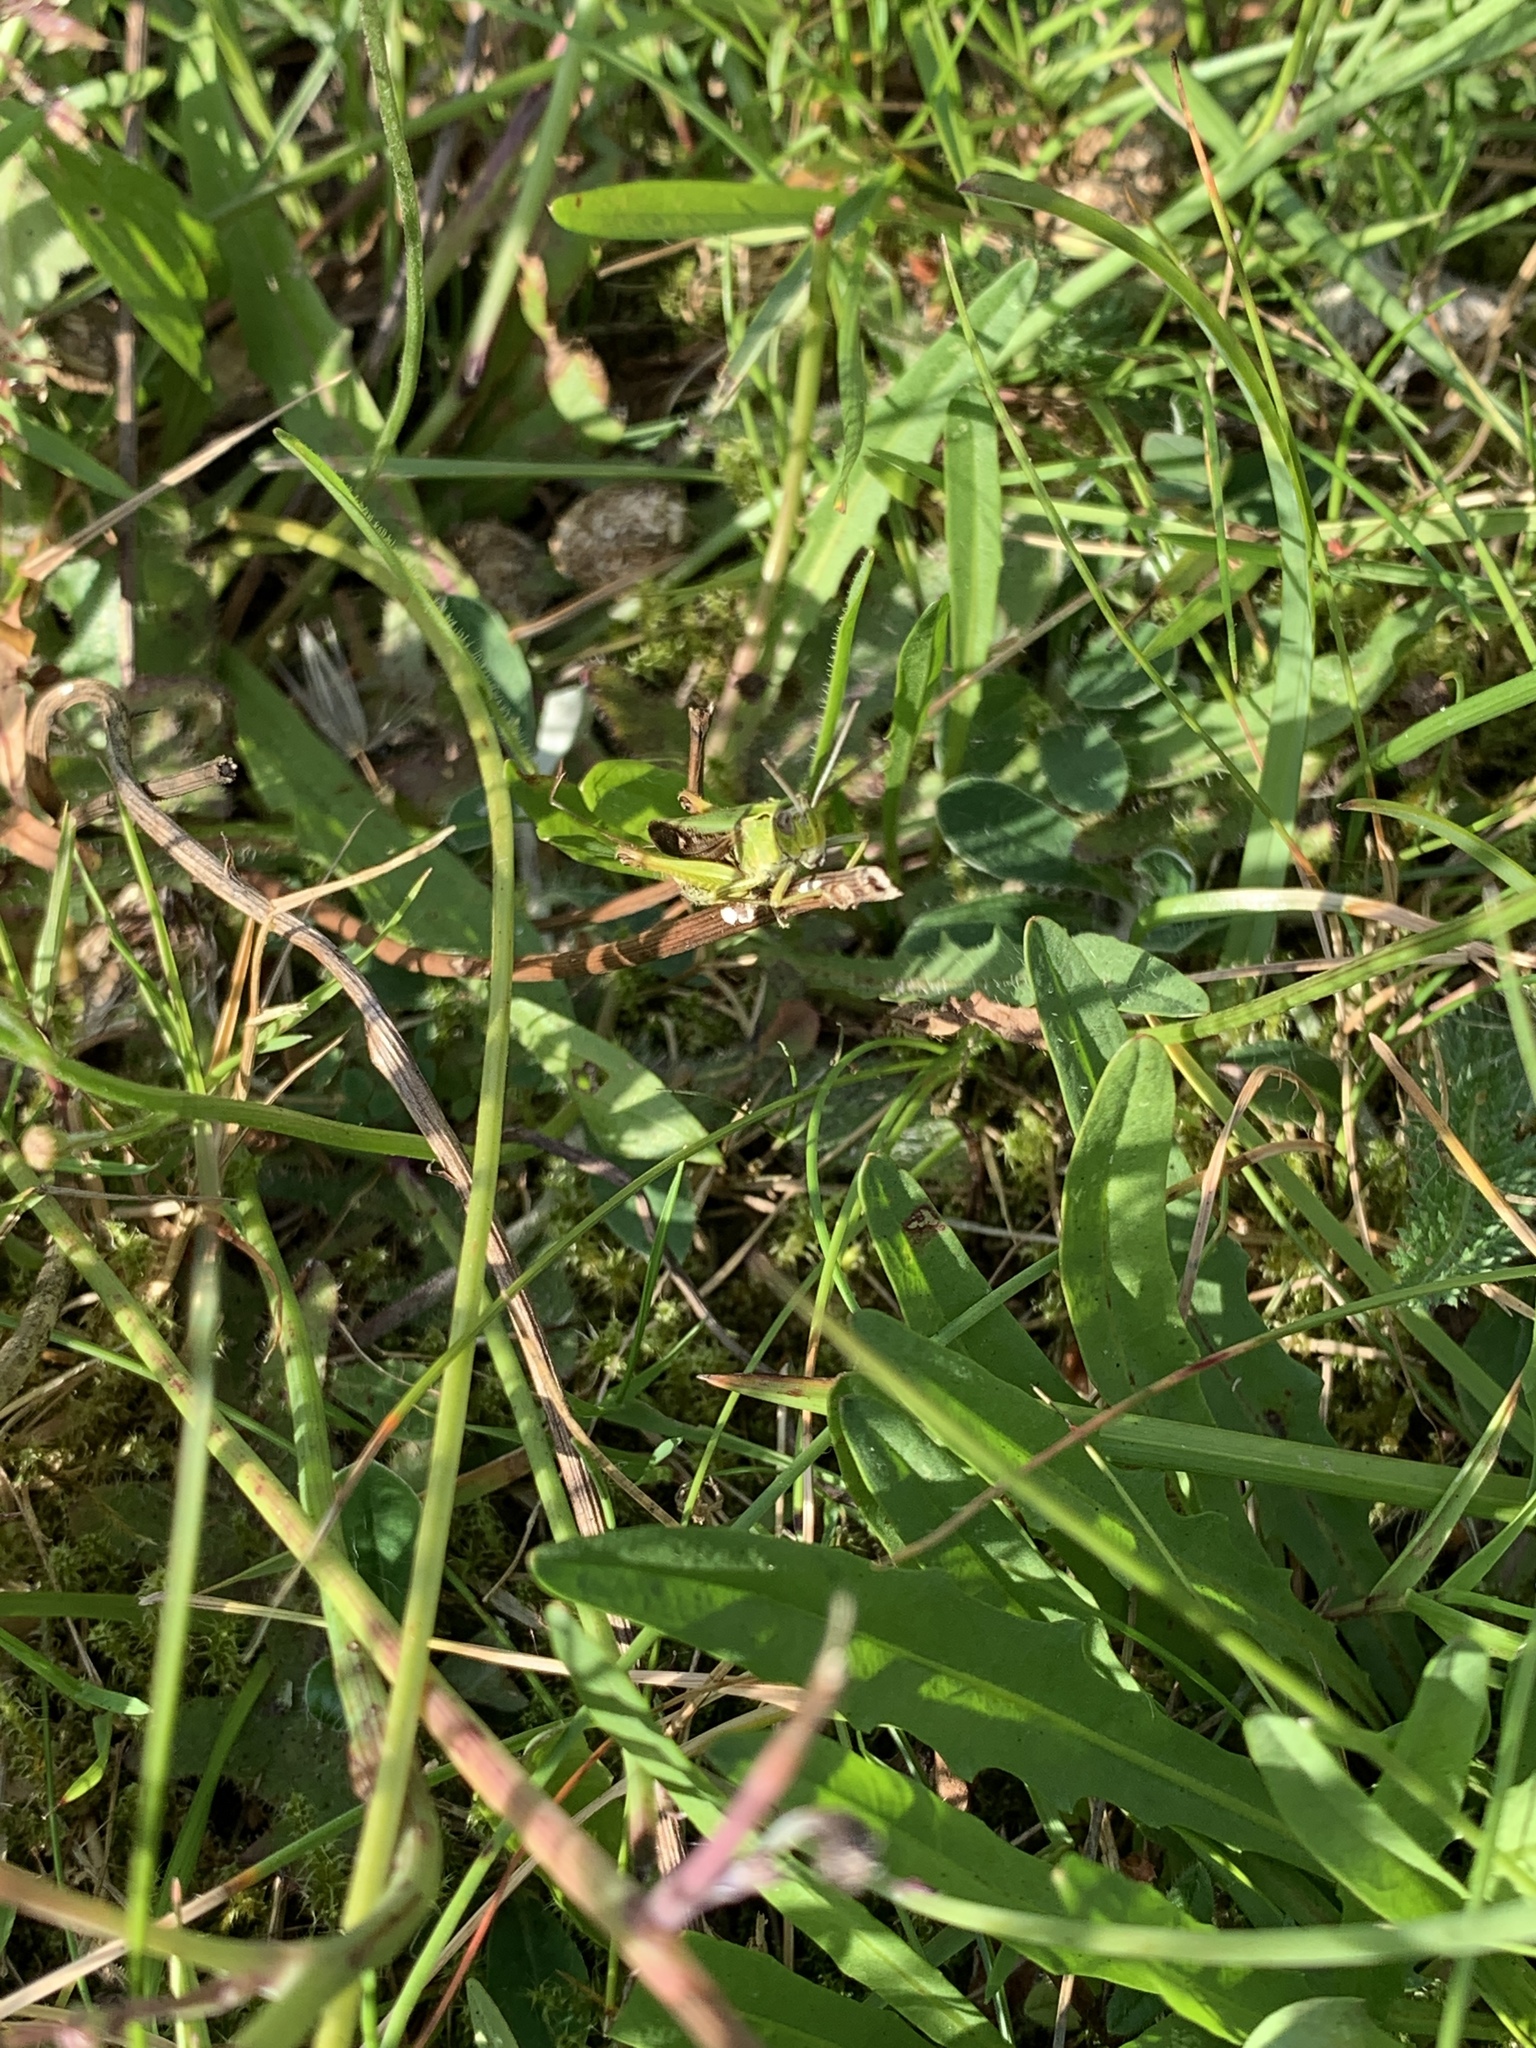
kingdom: Animalia
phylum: Arthropoda
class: Insecta
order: Orthoptera
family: Acrididae
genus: Omocestus
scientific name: Omocestus viridulus
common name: Common green grasshopper
